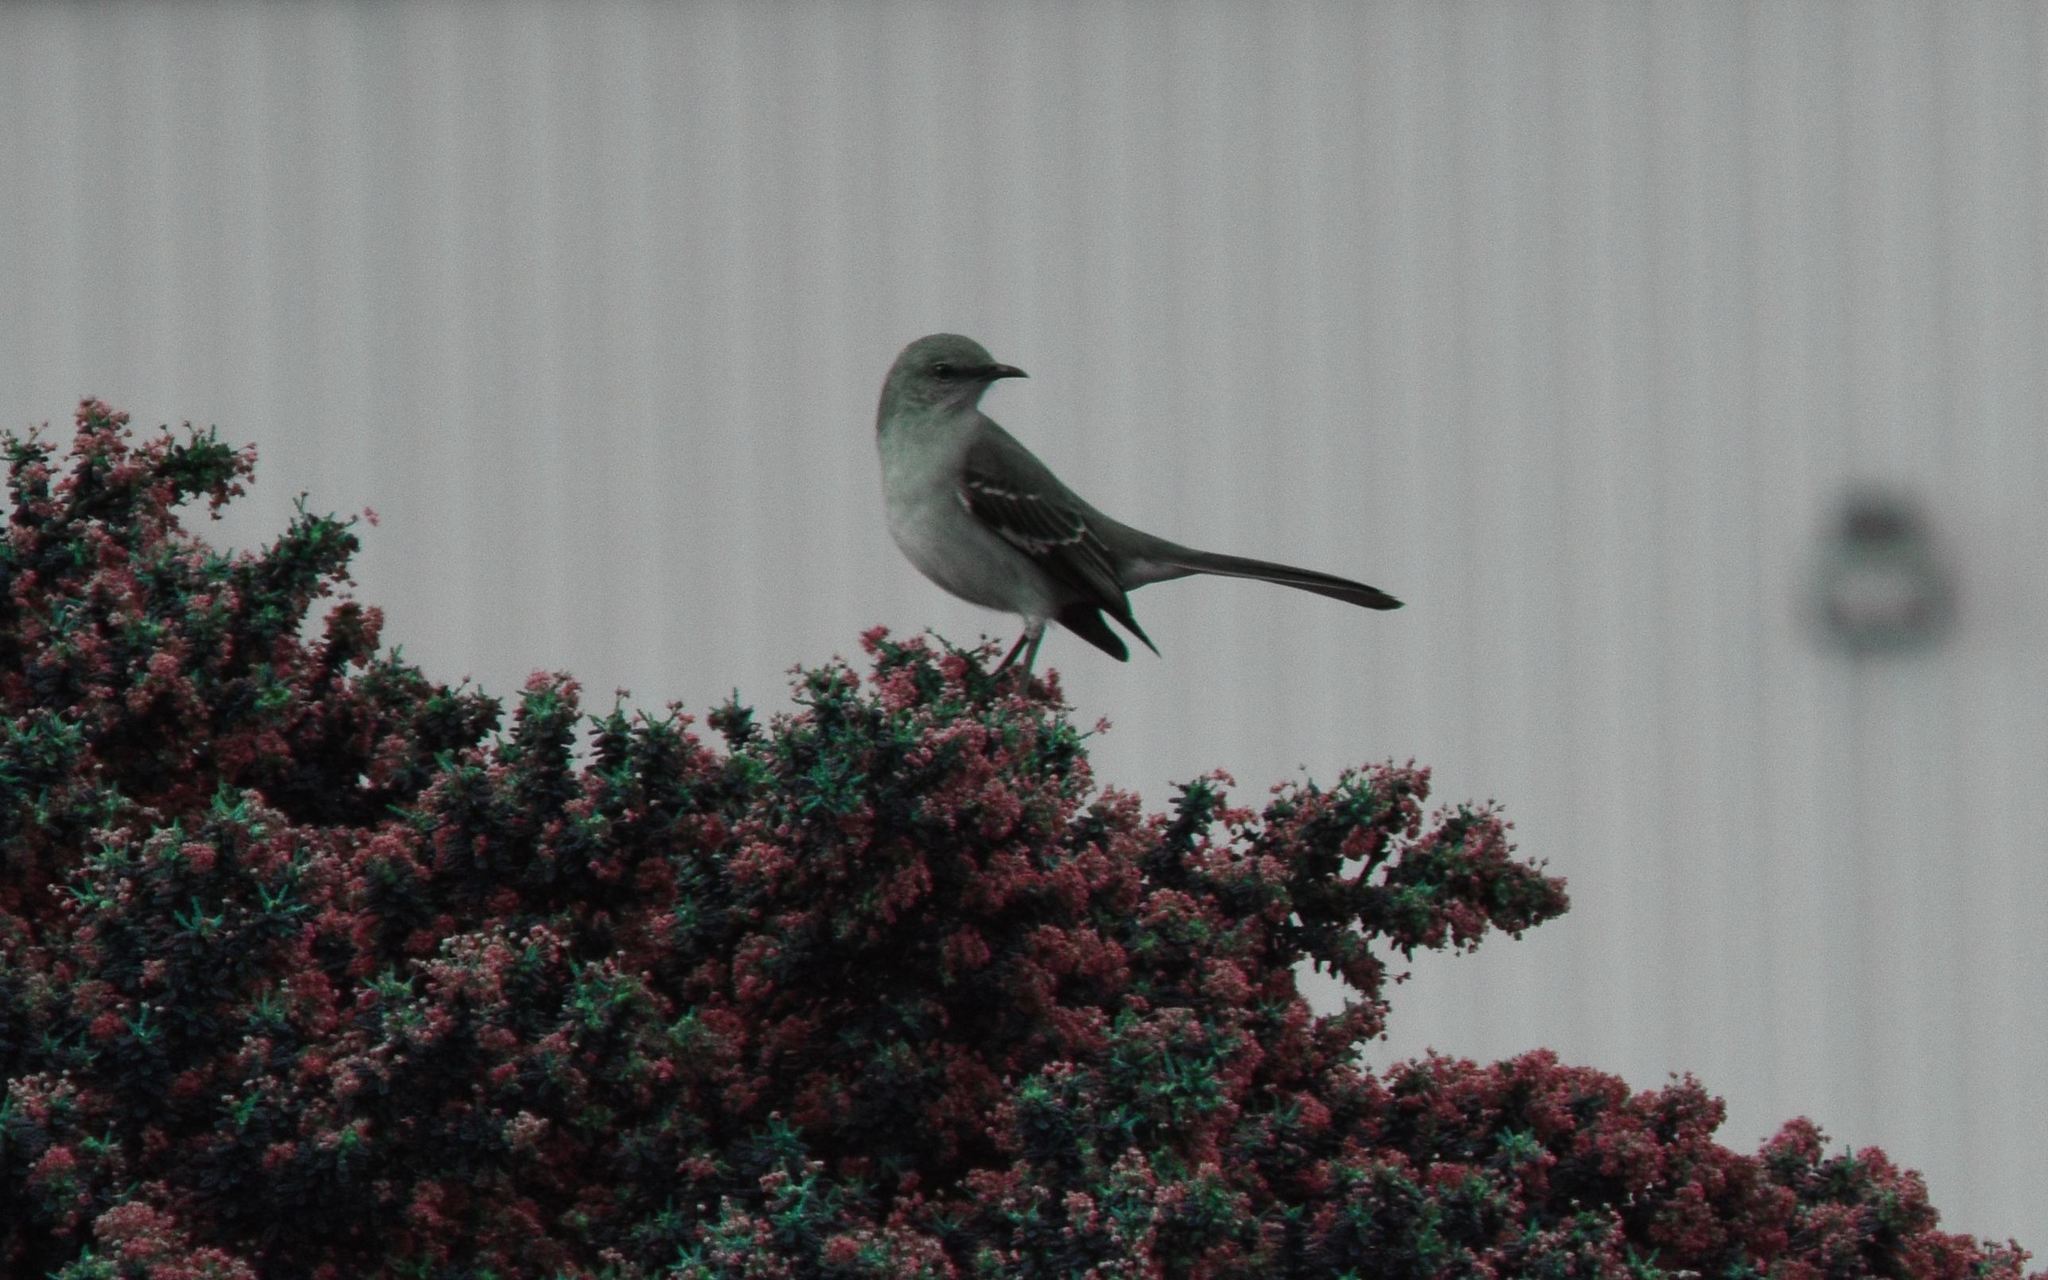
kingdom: Animalia
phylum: Chordata
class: Aves
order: Passeriformes
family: Mimidae
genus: Mimus
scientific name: Mimus polyglottos
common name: Northern mockingbird
